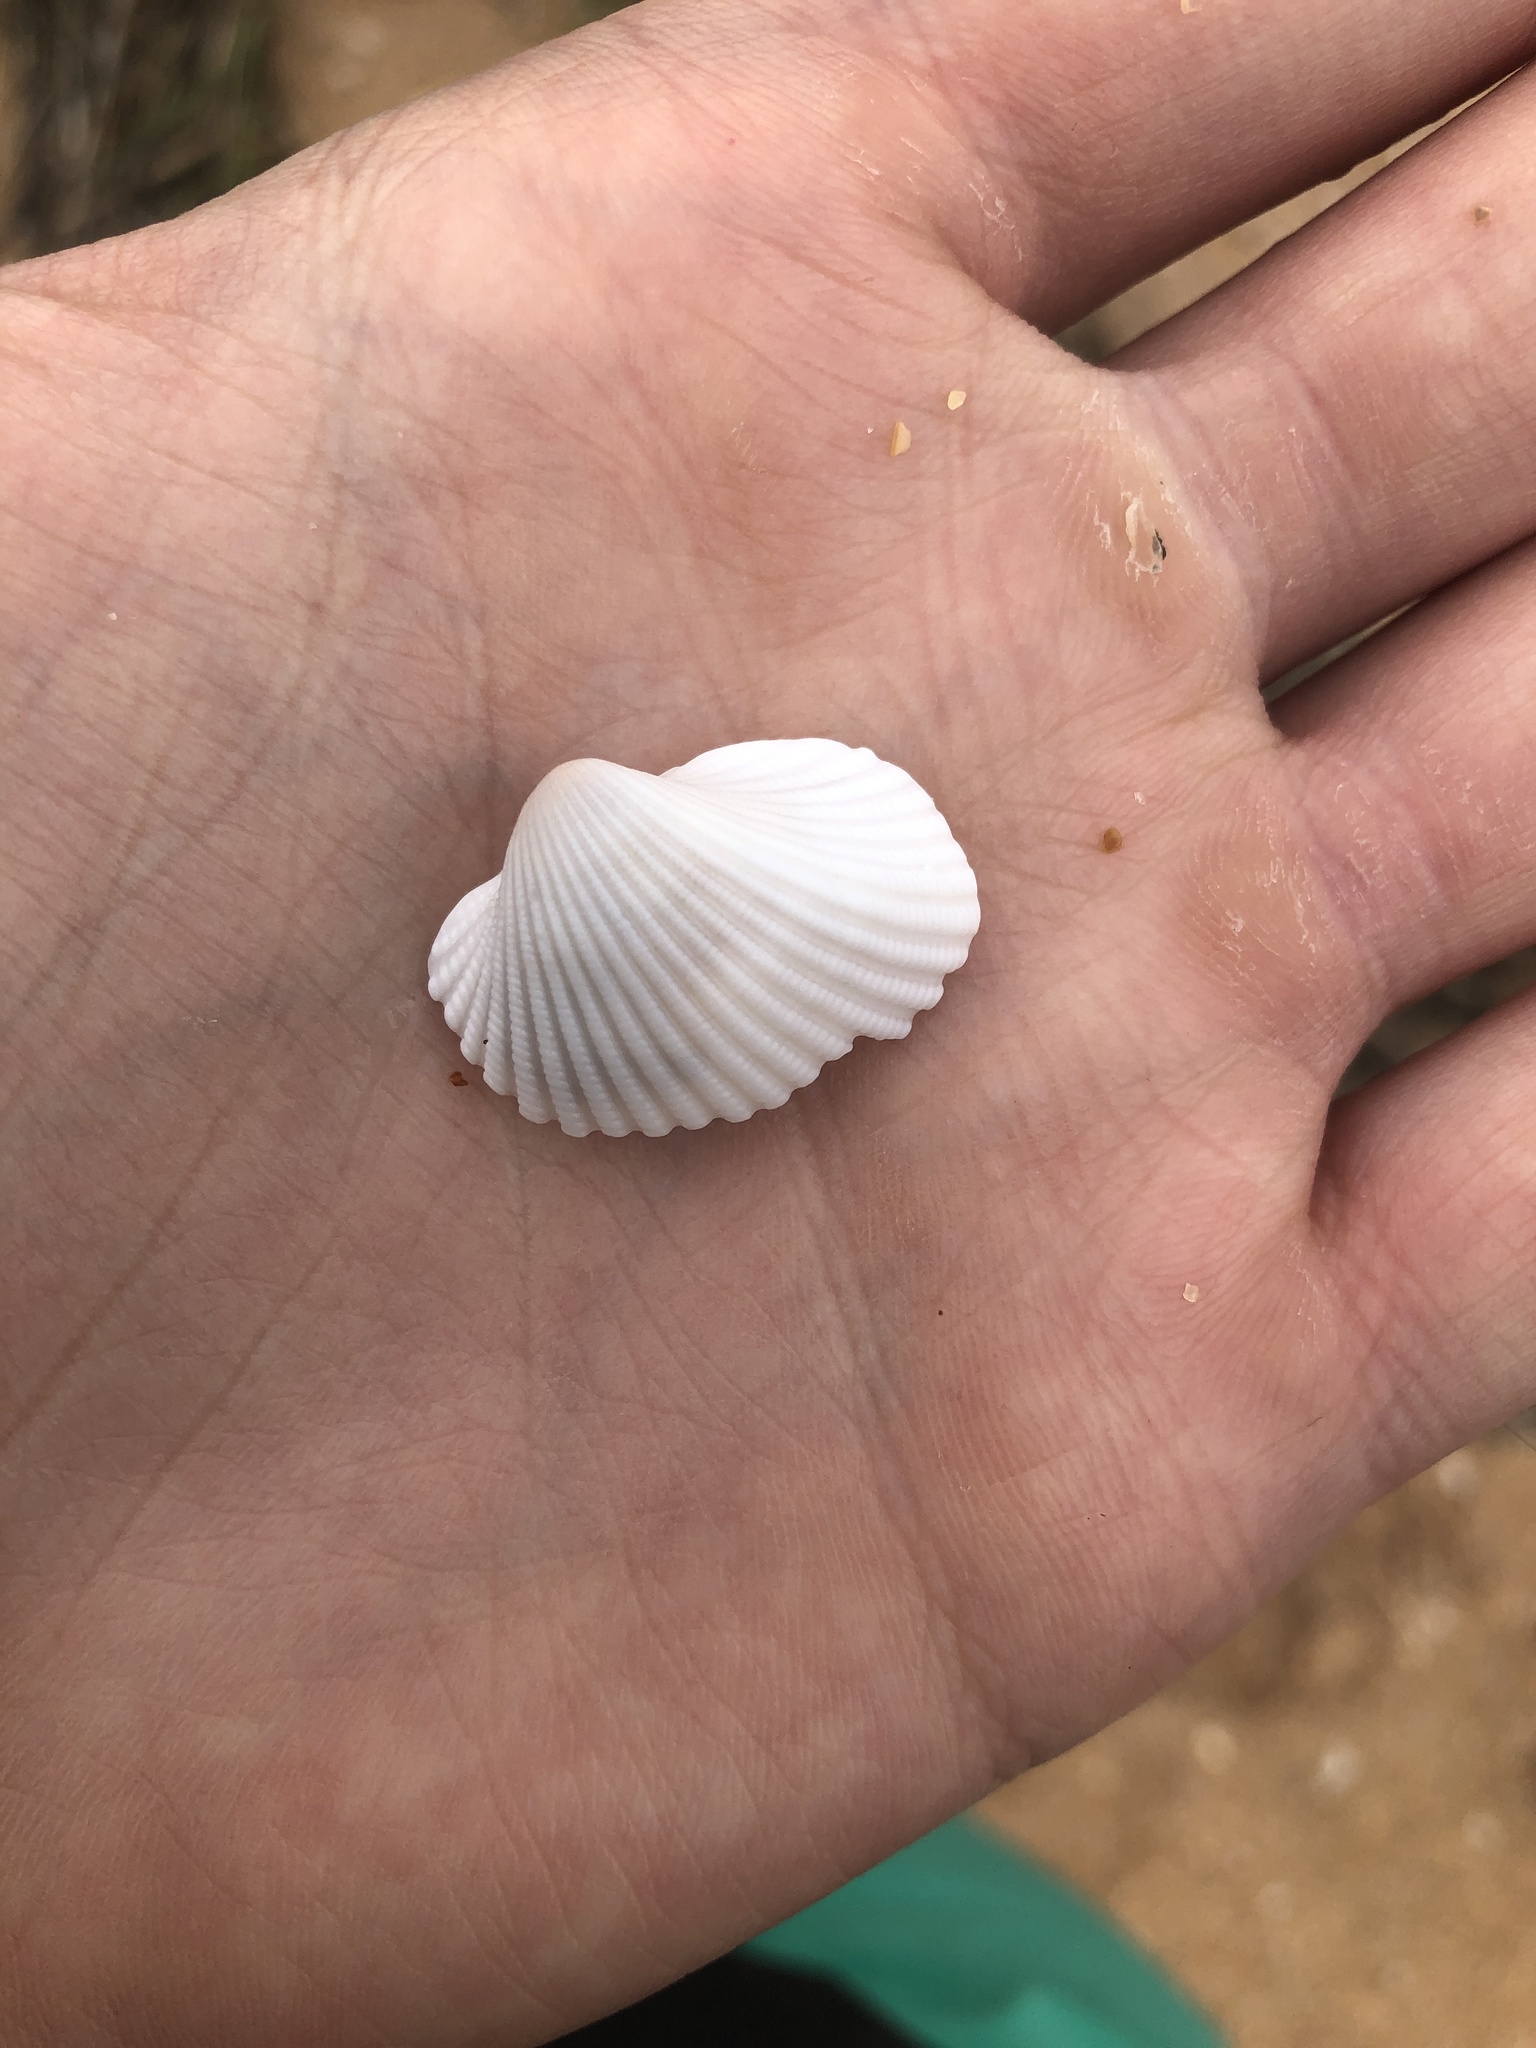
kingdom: Animalia
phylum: Mollusca
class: Bivalvia
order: Arcida
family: Arcidae
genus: Anadara
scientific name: Anadara brasiliana
